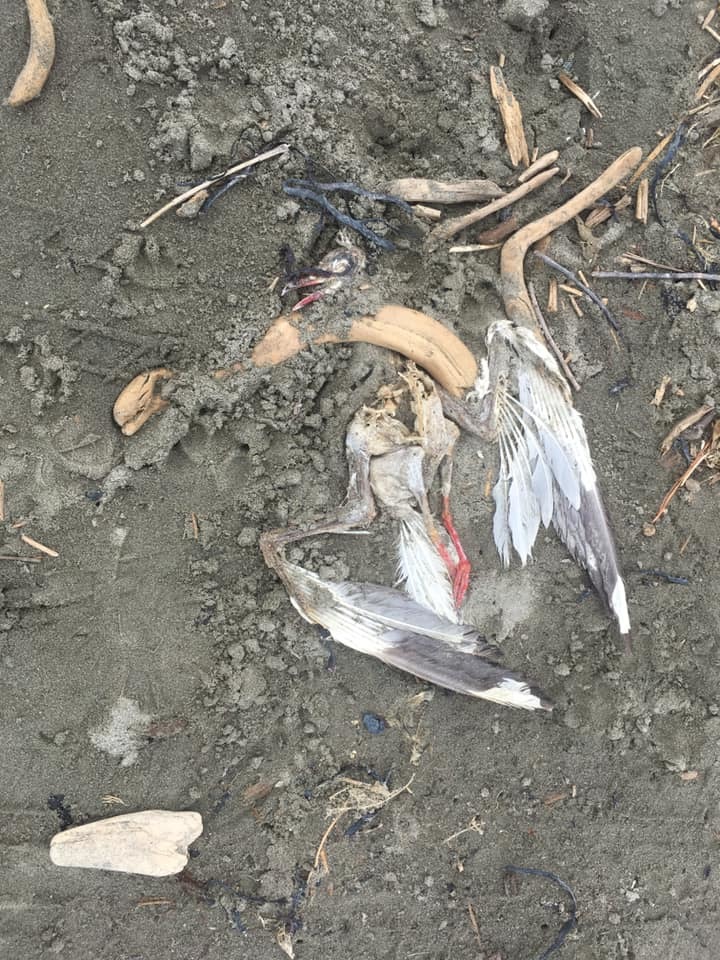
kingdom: Animalia
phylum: Chordata
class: Aves
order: Charadriiformes
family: Laridae
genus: Chroicocephalus
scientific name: Chroicocephalus novaehollandiae
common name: Silver gull
